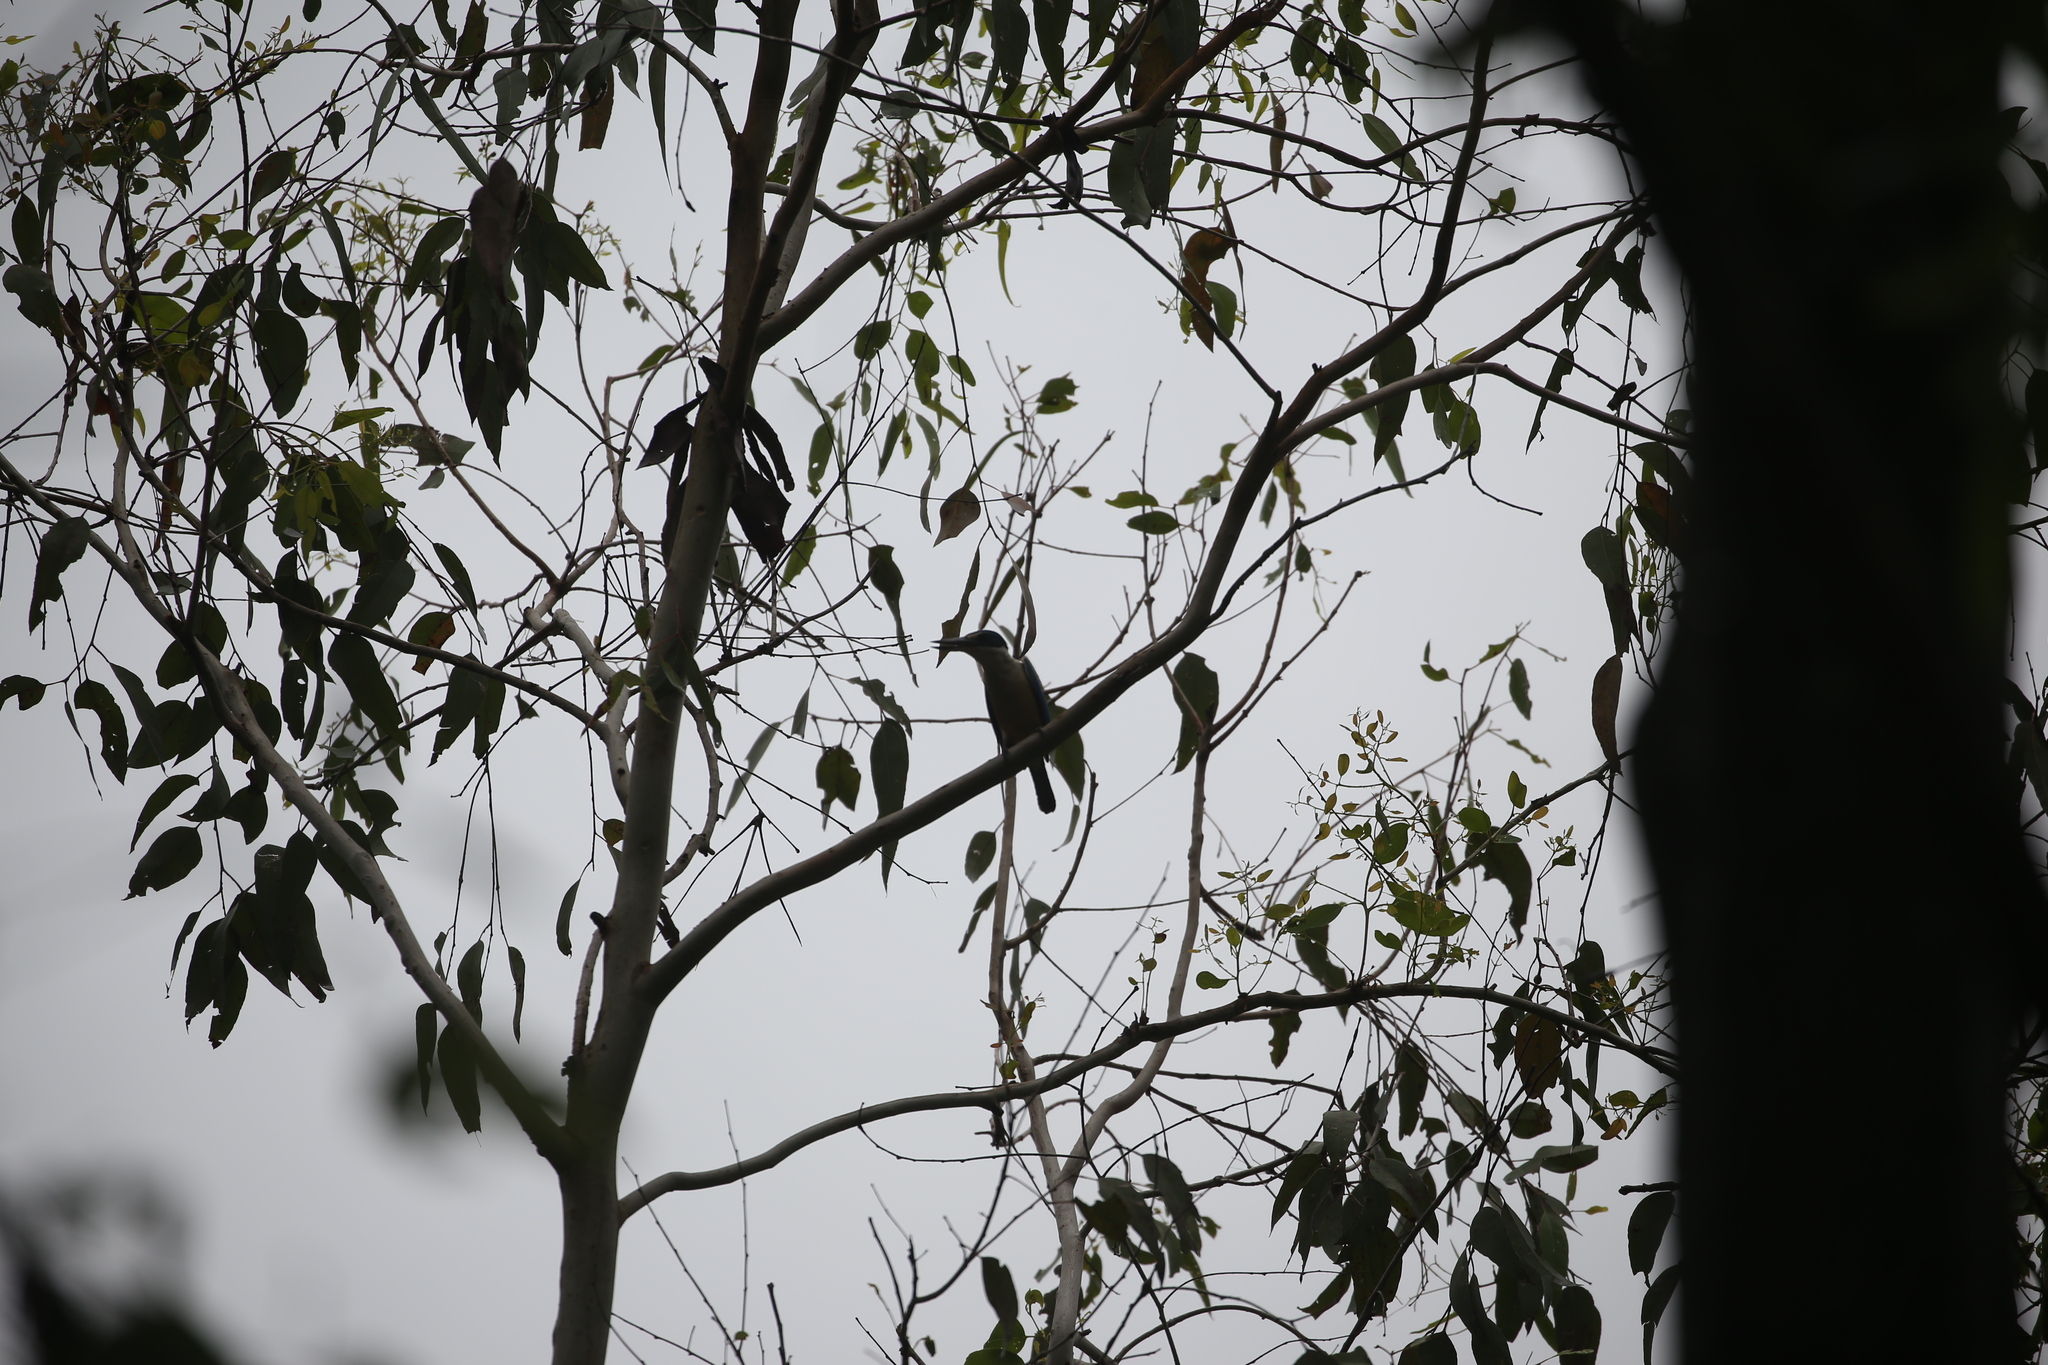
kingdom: Animalia
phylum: Chordata
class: Aves
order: Coraciiformes
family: Alcedinidae
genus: Todiramphus
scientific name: Todiramphus sanctus
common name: Sacred kingfisher
